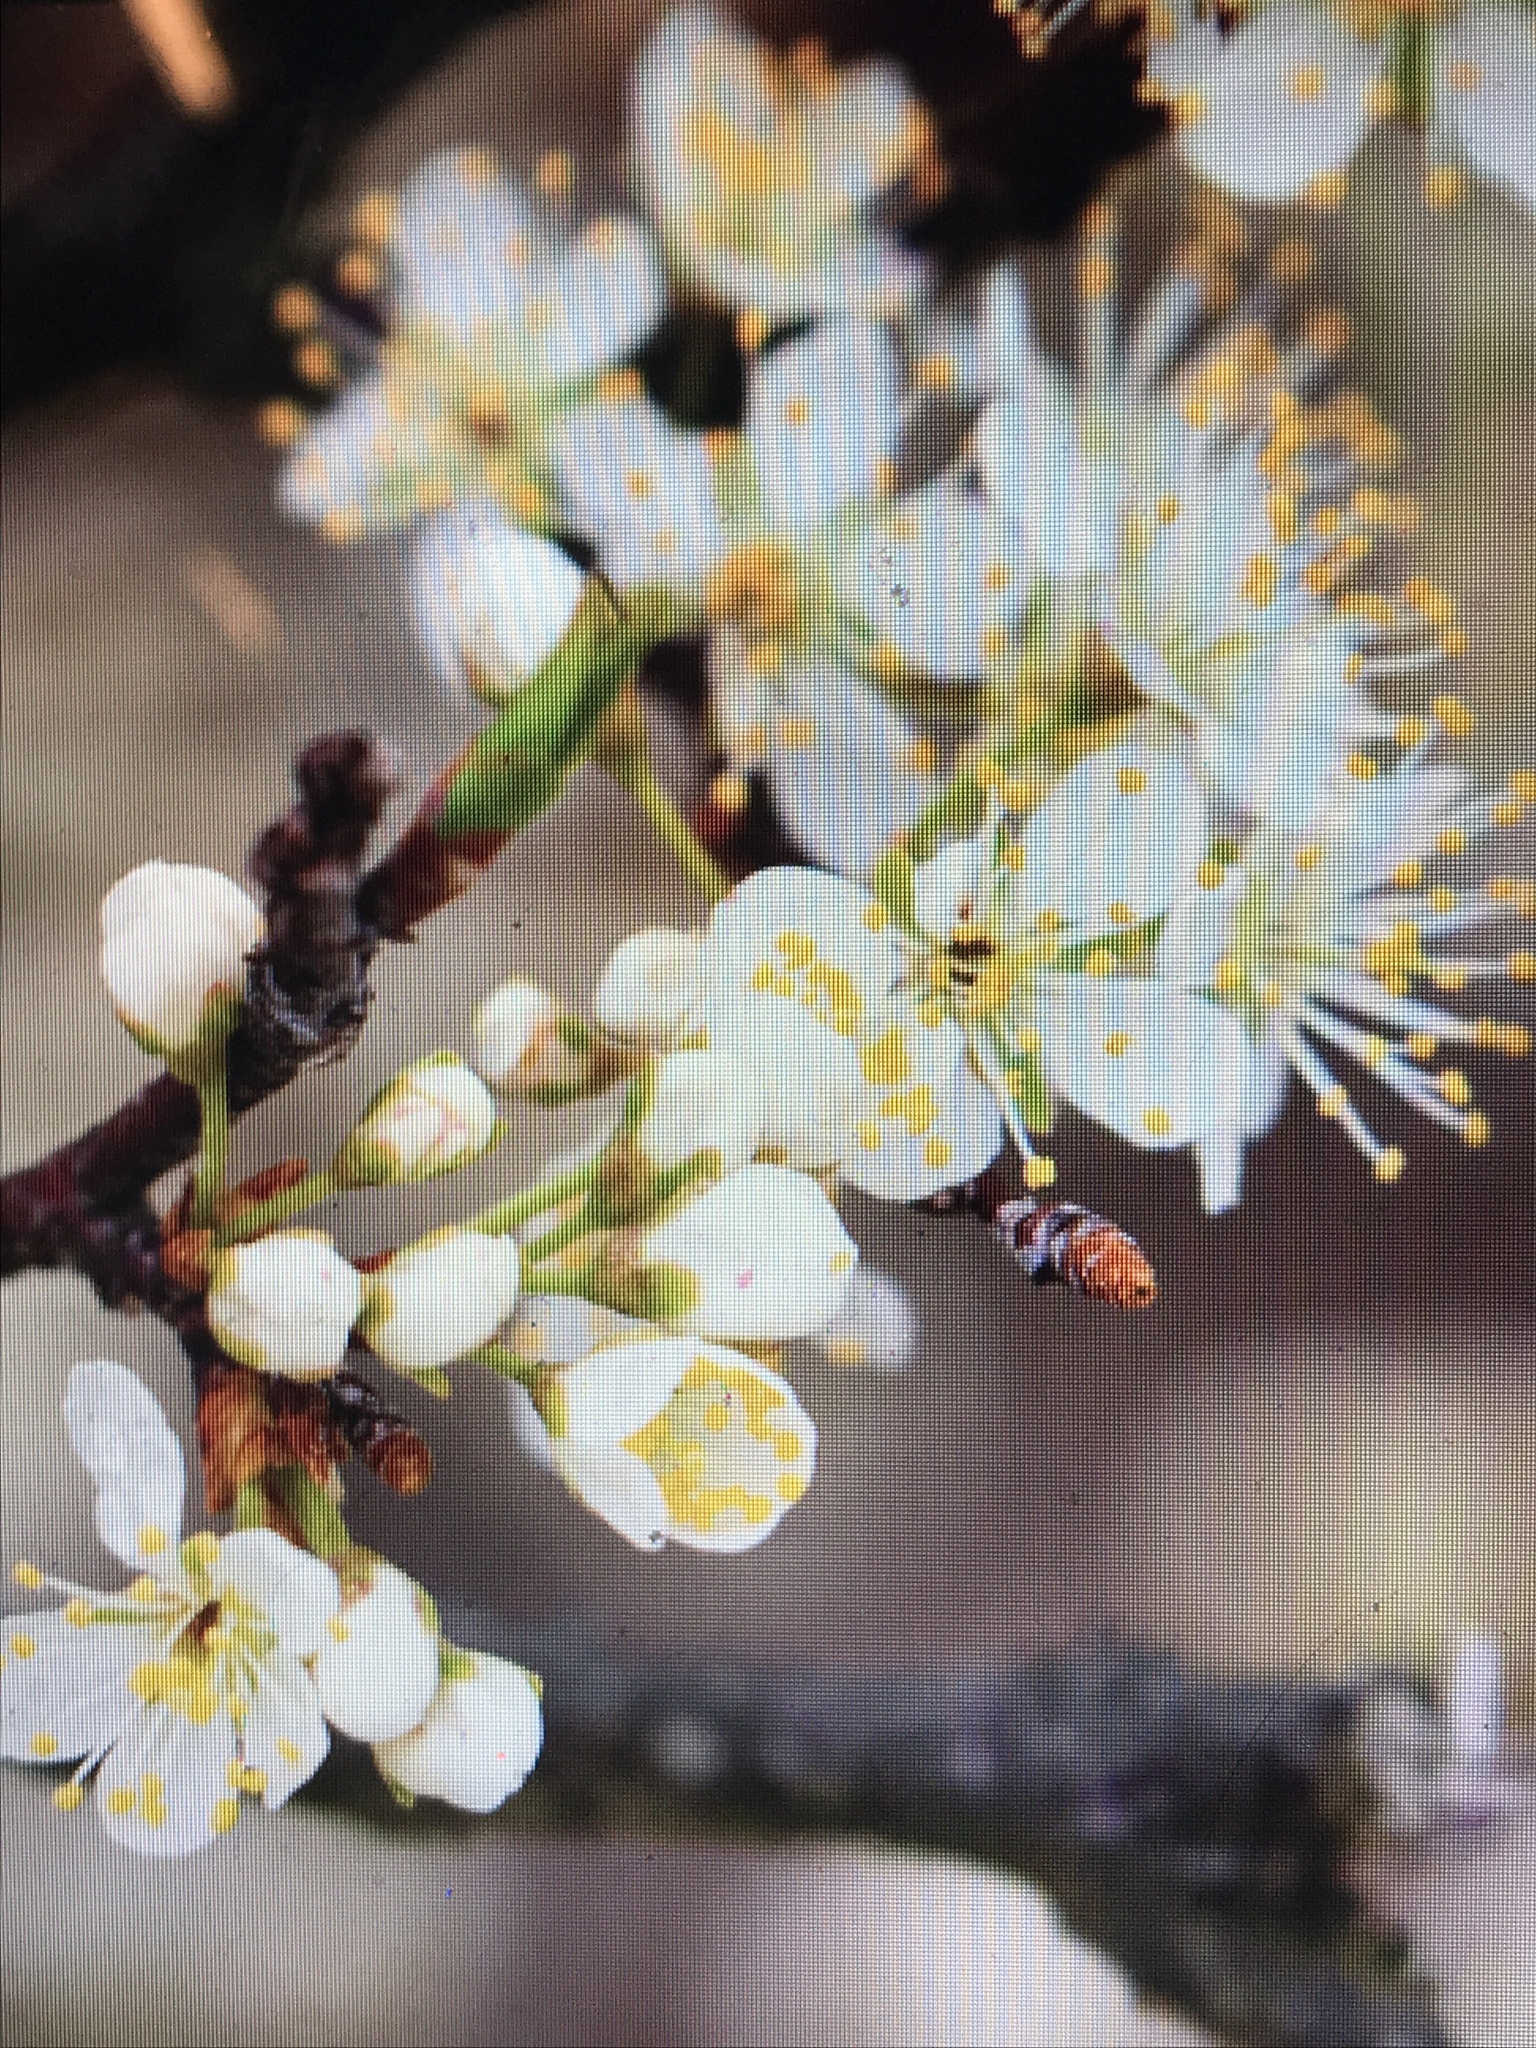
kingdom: Plantae
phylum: Tracheophyta
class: Magnoliopsida
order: Rosales
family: Rosaceae
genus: Prunus
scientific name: Prunus maritima
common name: Beach plum
